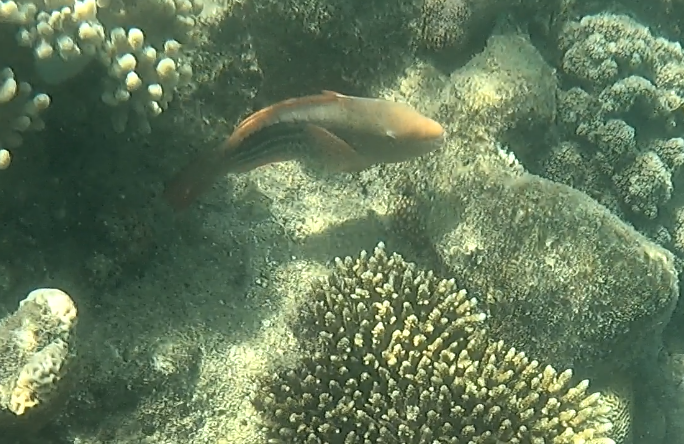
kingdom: Animalia
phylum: Chordata
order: Perciformes
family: Scaridae
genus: Scarus
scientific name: Scarus frenatus
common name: Bridled parrotfish
